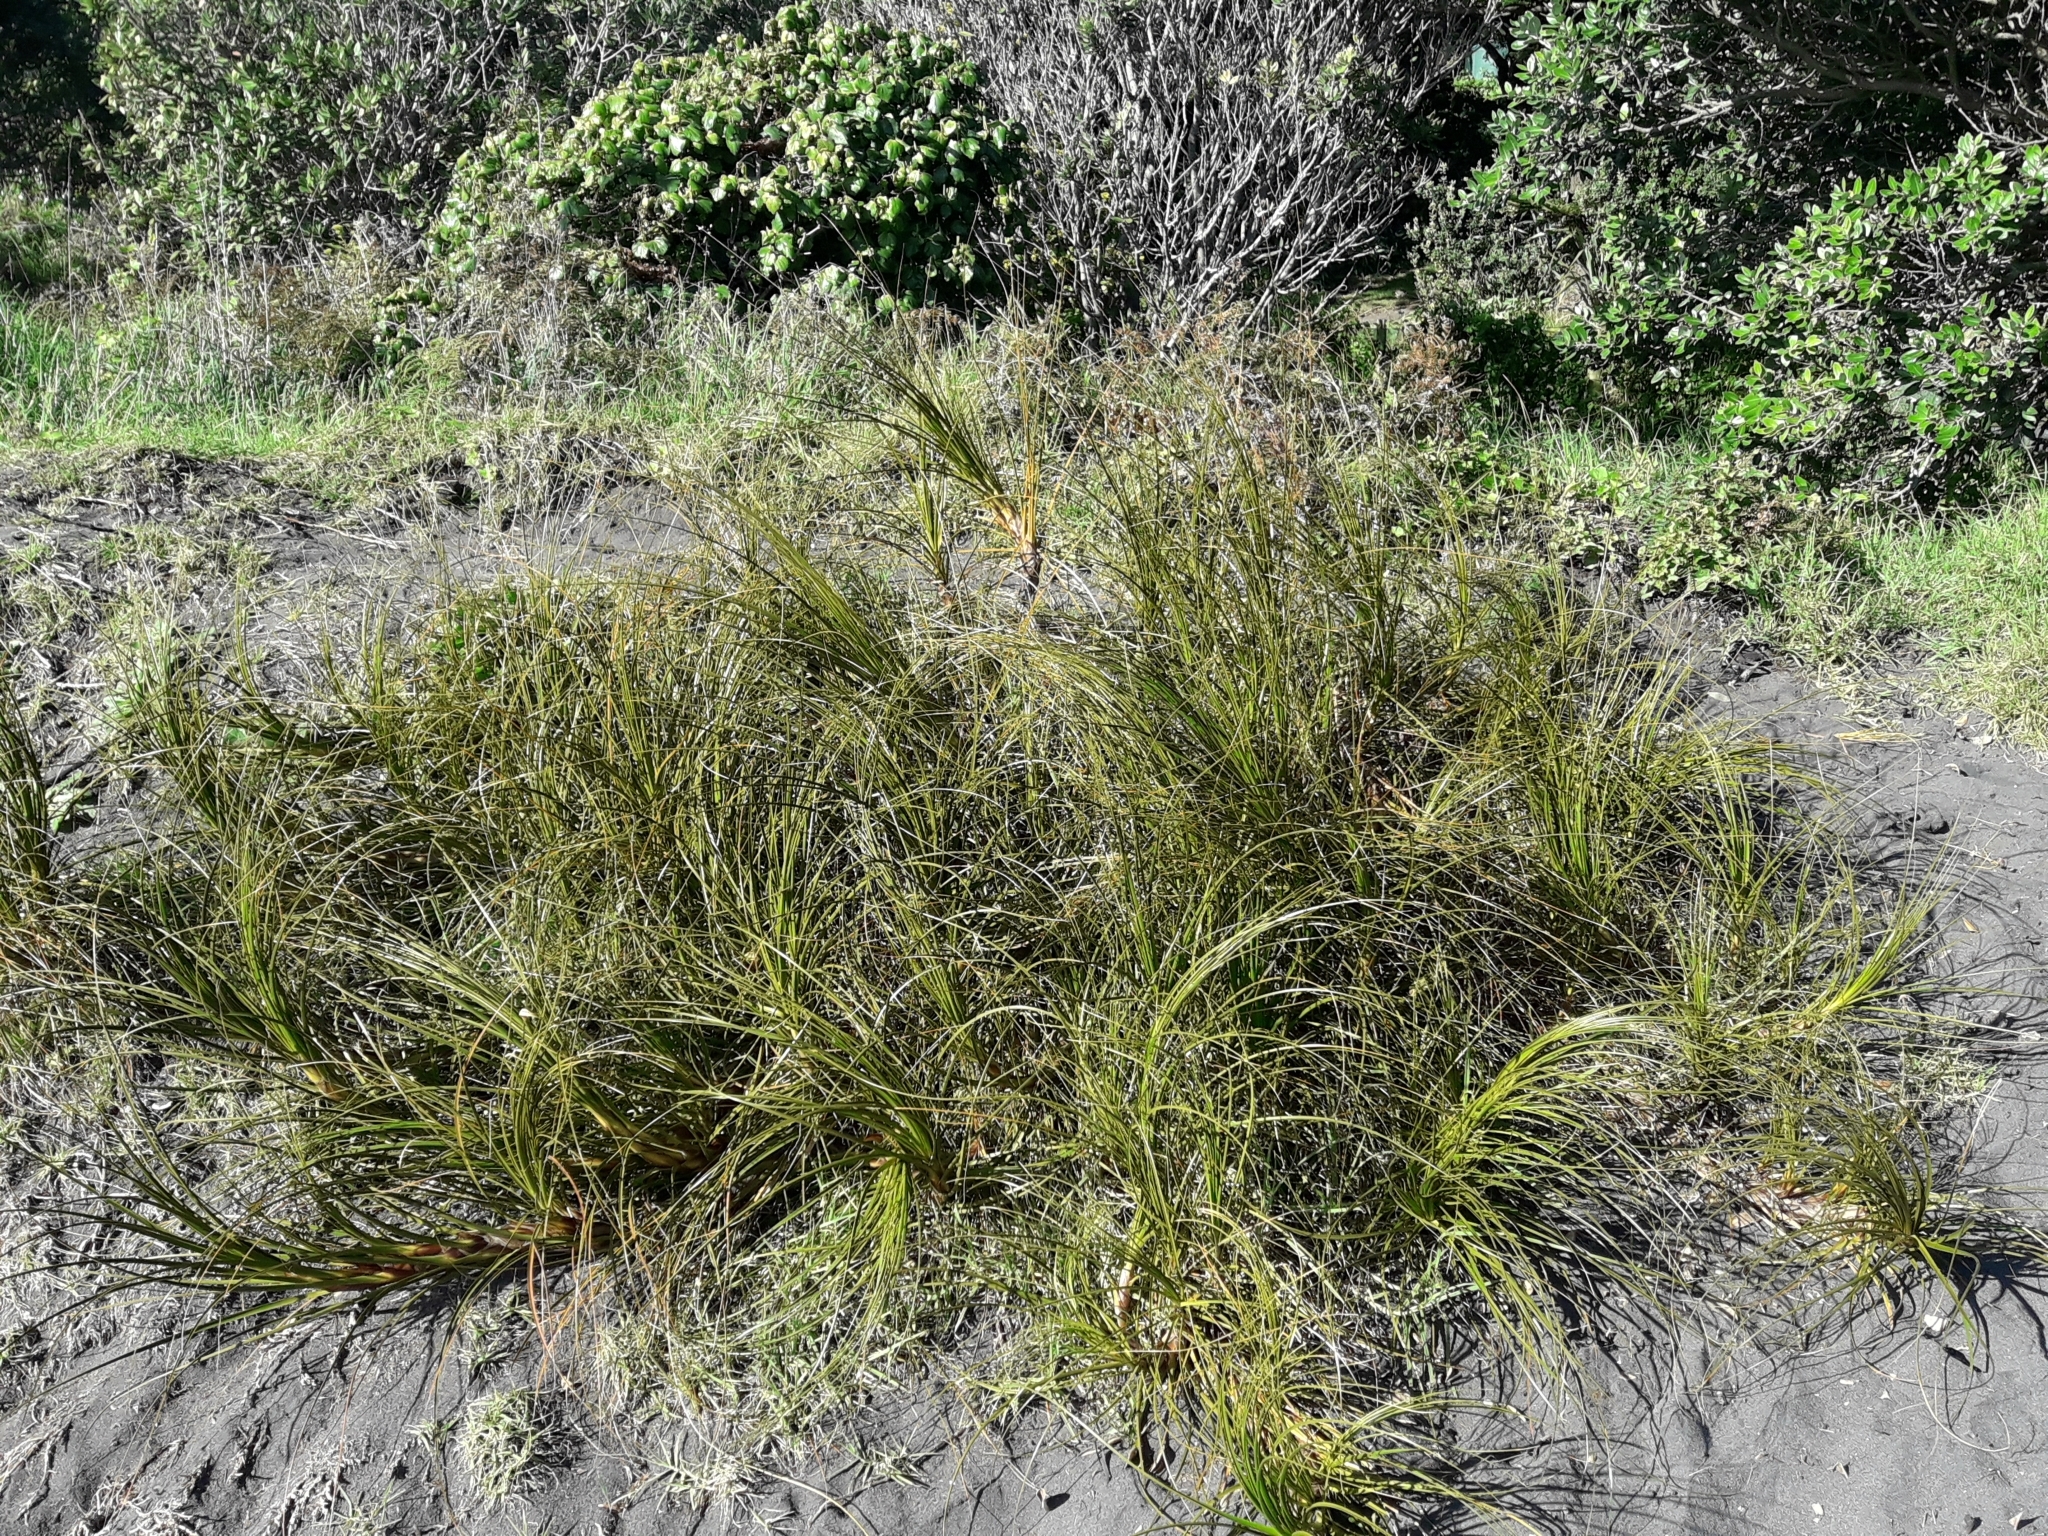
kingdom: Plantae
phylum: Tracheophyta
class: Liliopsida
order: Poales
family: Cyperaceae
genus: Ficinia
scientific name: Ficinia spiralis
